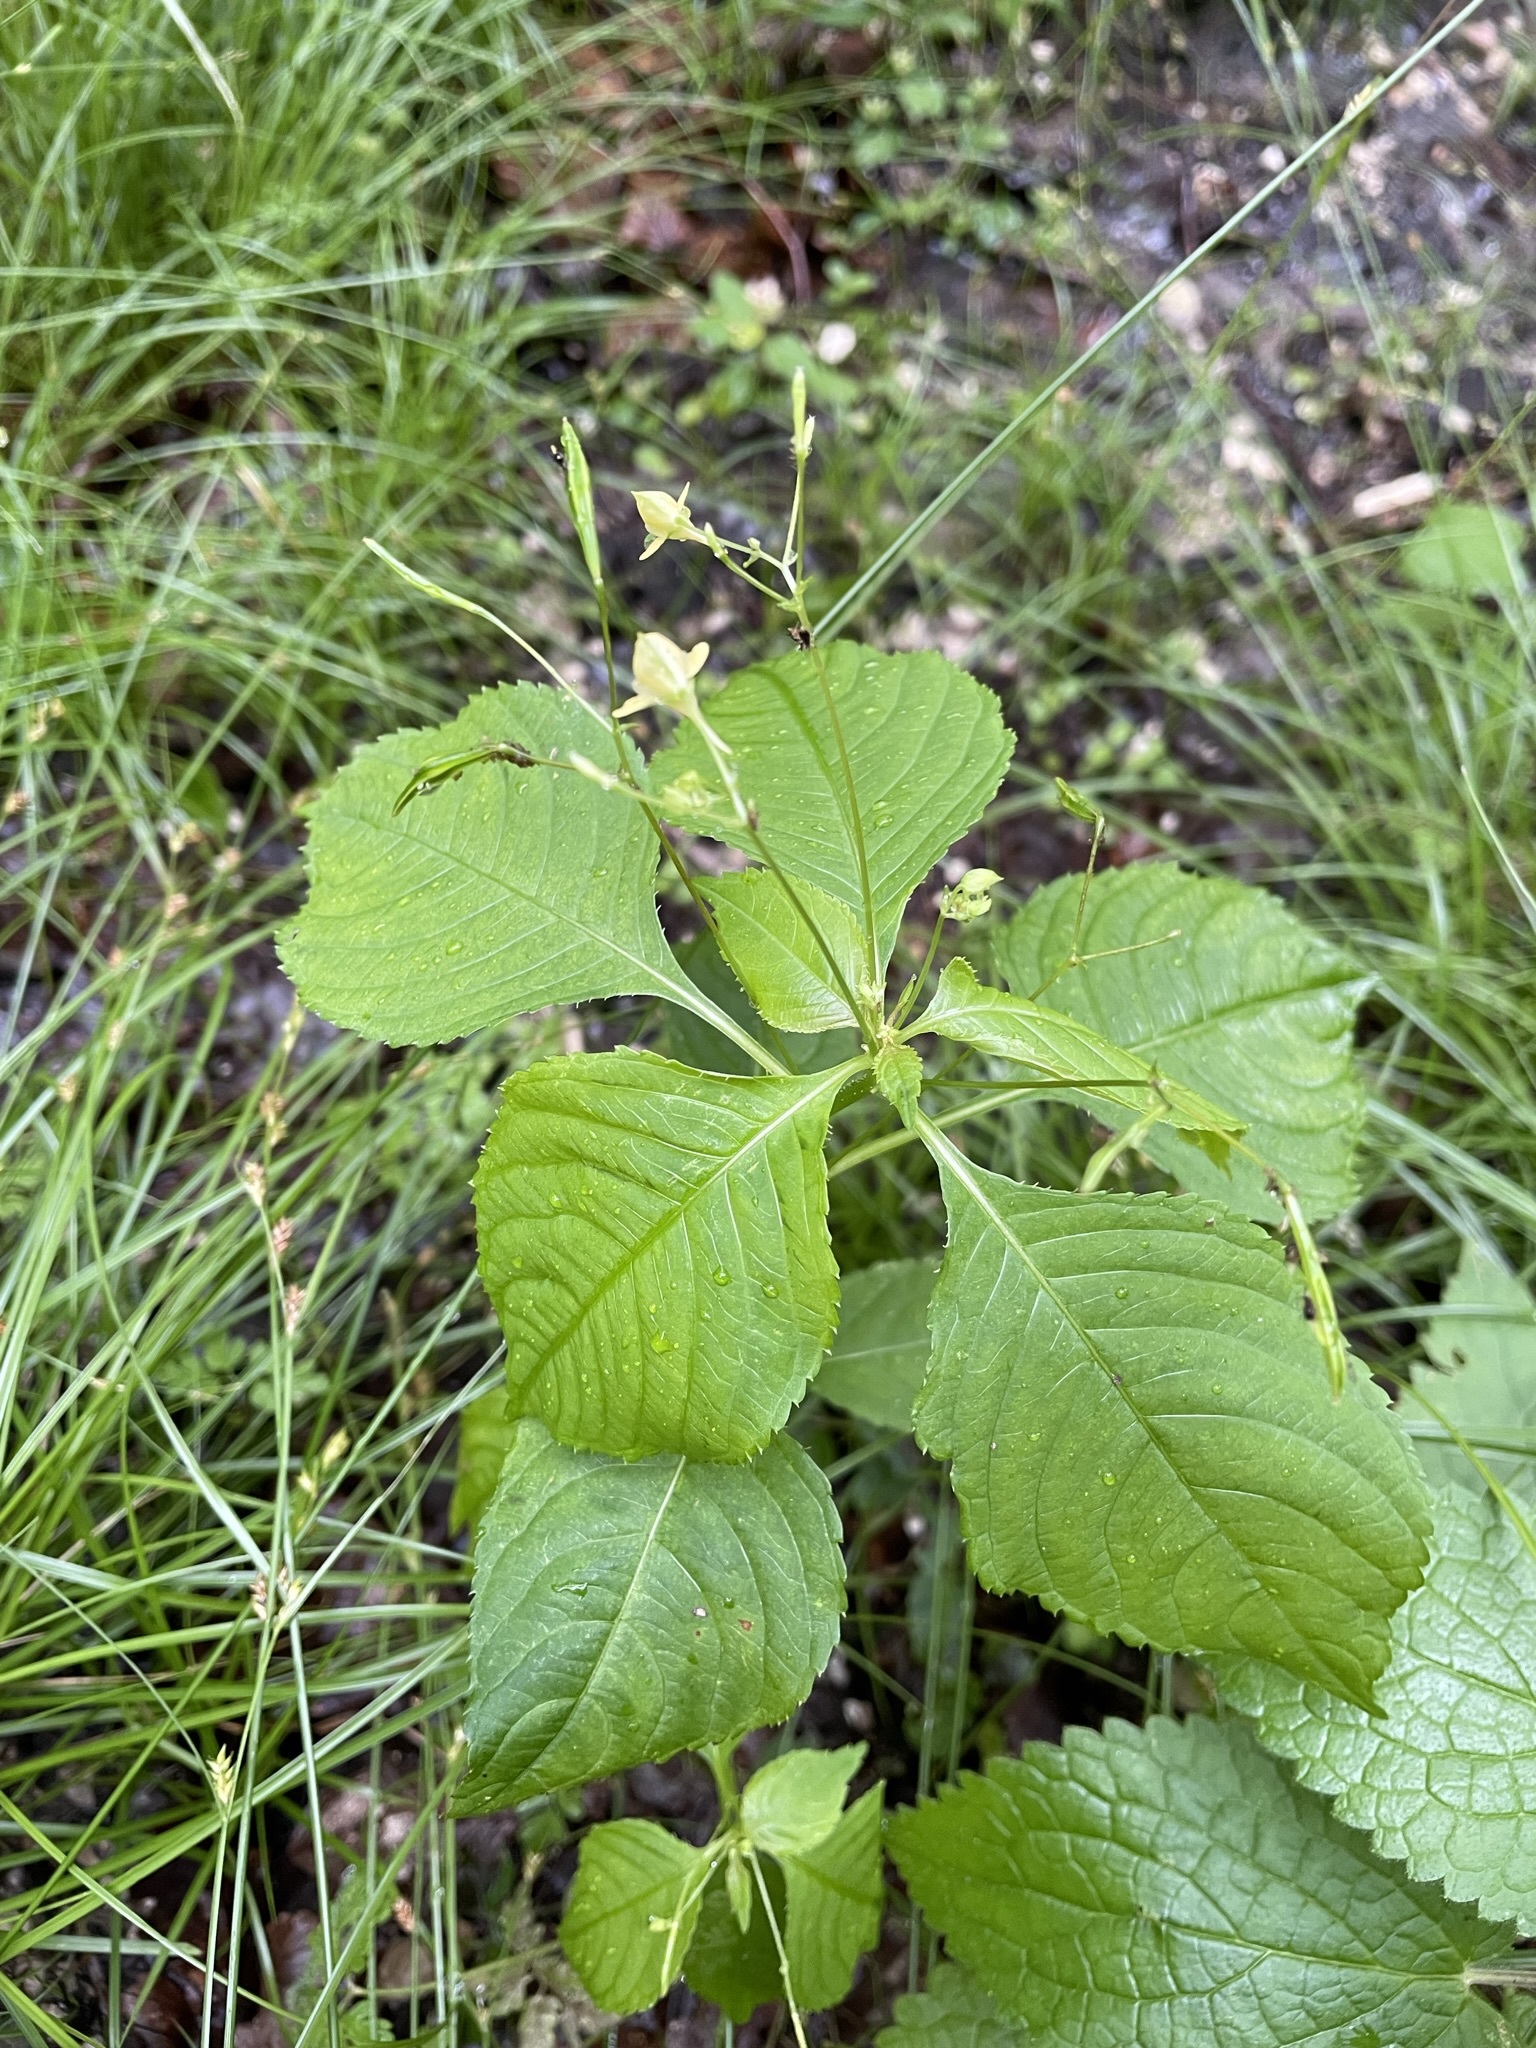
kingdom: Plantae
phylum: Tracheophyta
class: Magnoliopsida
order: Ericales
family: Balsaminaceae
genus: Impatiens
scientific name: Impatiens parviflora
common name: Small balsam
